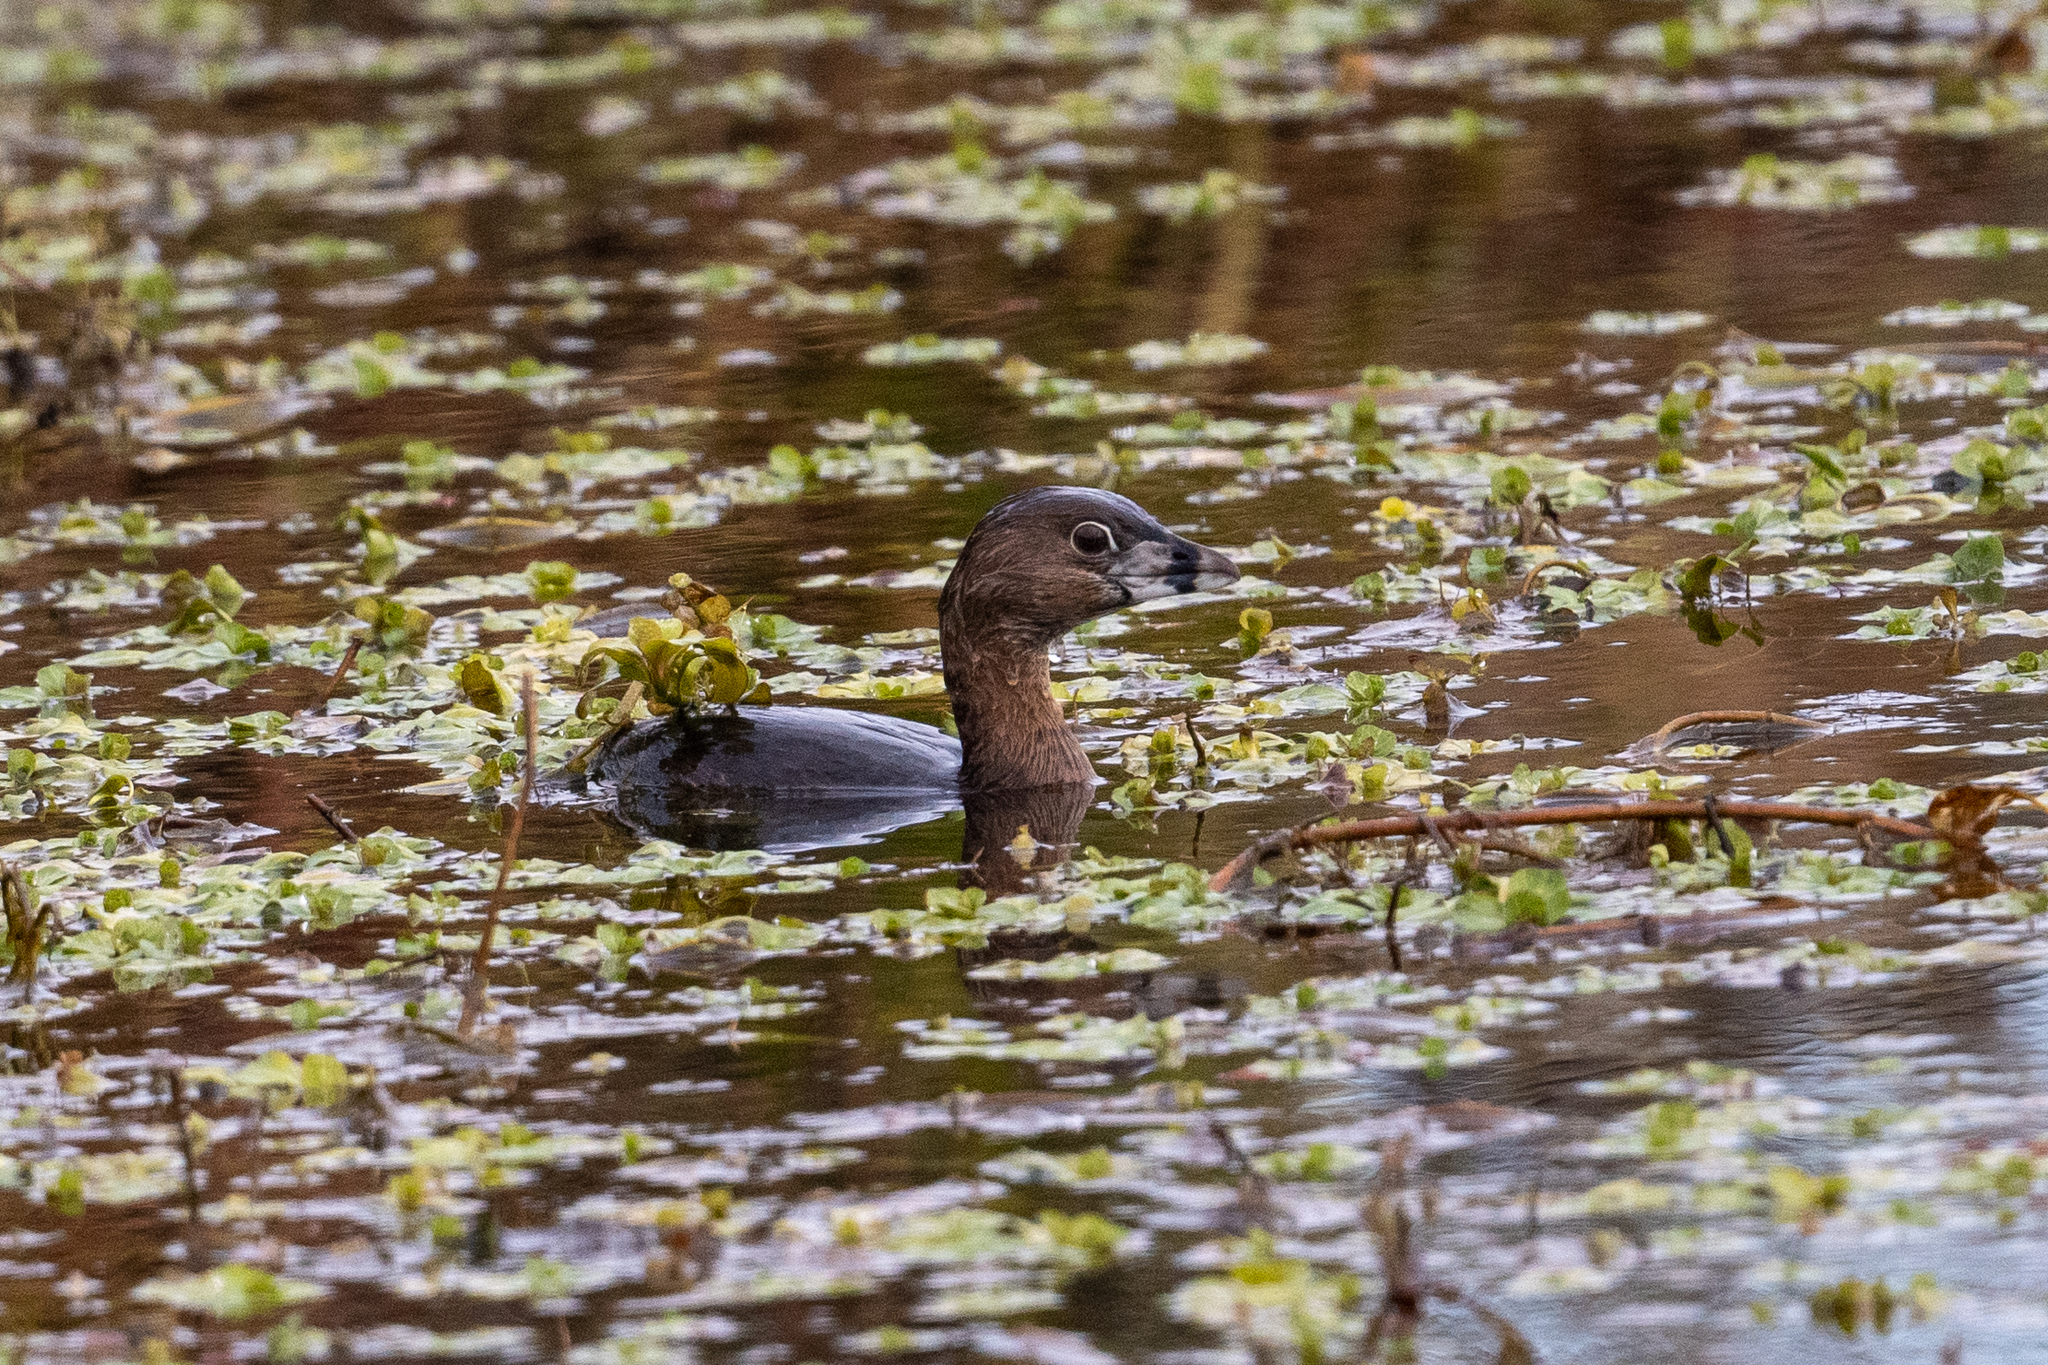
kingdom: Animalia
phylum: Chordata
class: Aves
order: Podicipediformes
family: Podicipedidae
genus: Podilymbus
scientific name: Podilymbus podiceps
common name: Pied-billed grebe
